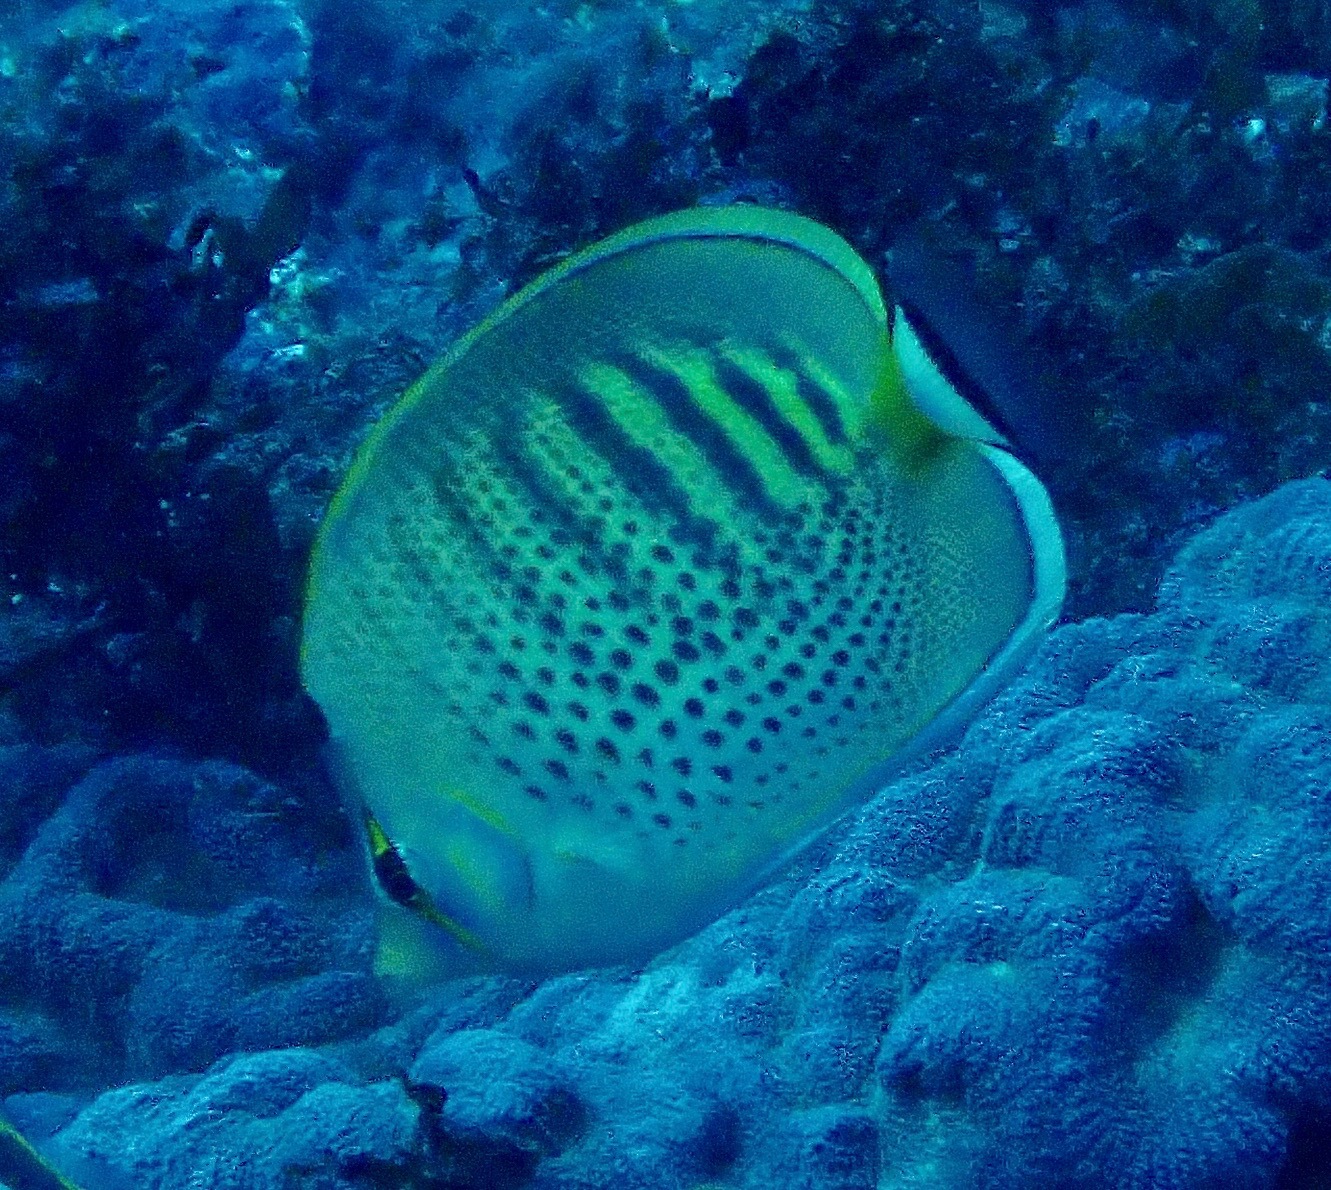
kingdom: Animalia
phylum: Chordata
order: Perciformes
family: Chaetodontidae
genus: Chaetodon
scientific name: Chaetodon punctatofasciatus
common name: Spot-banded butterflyfish
